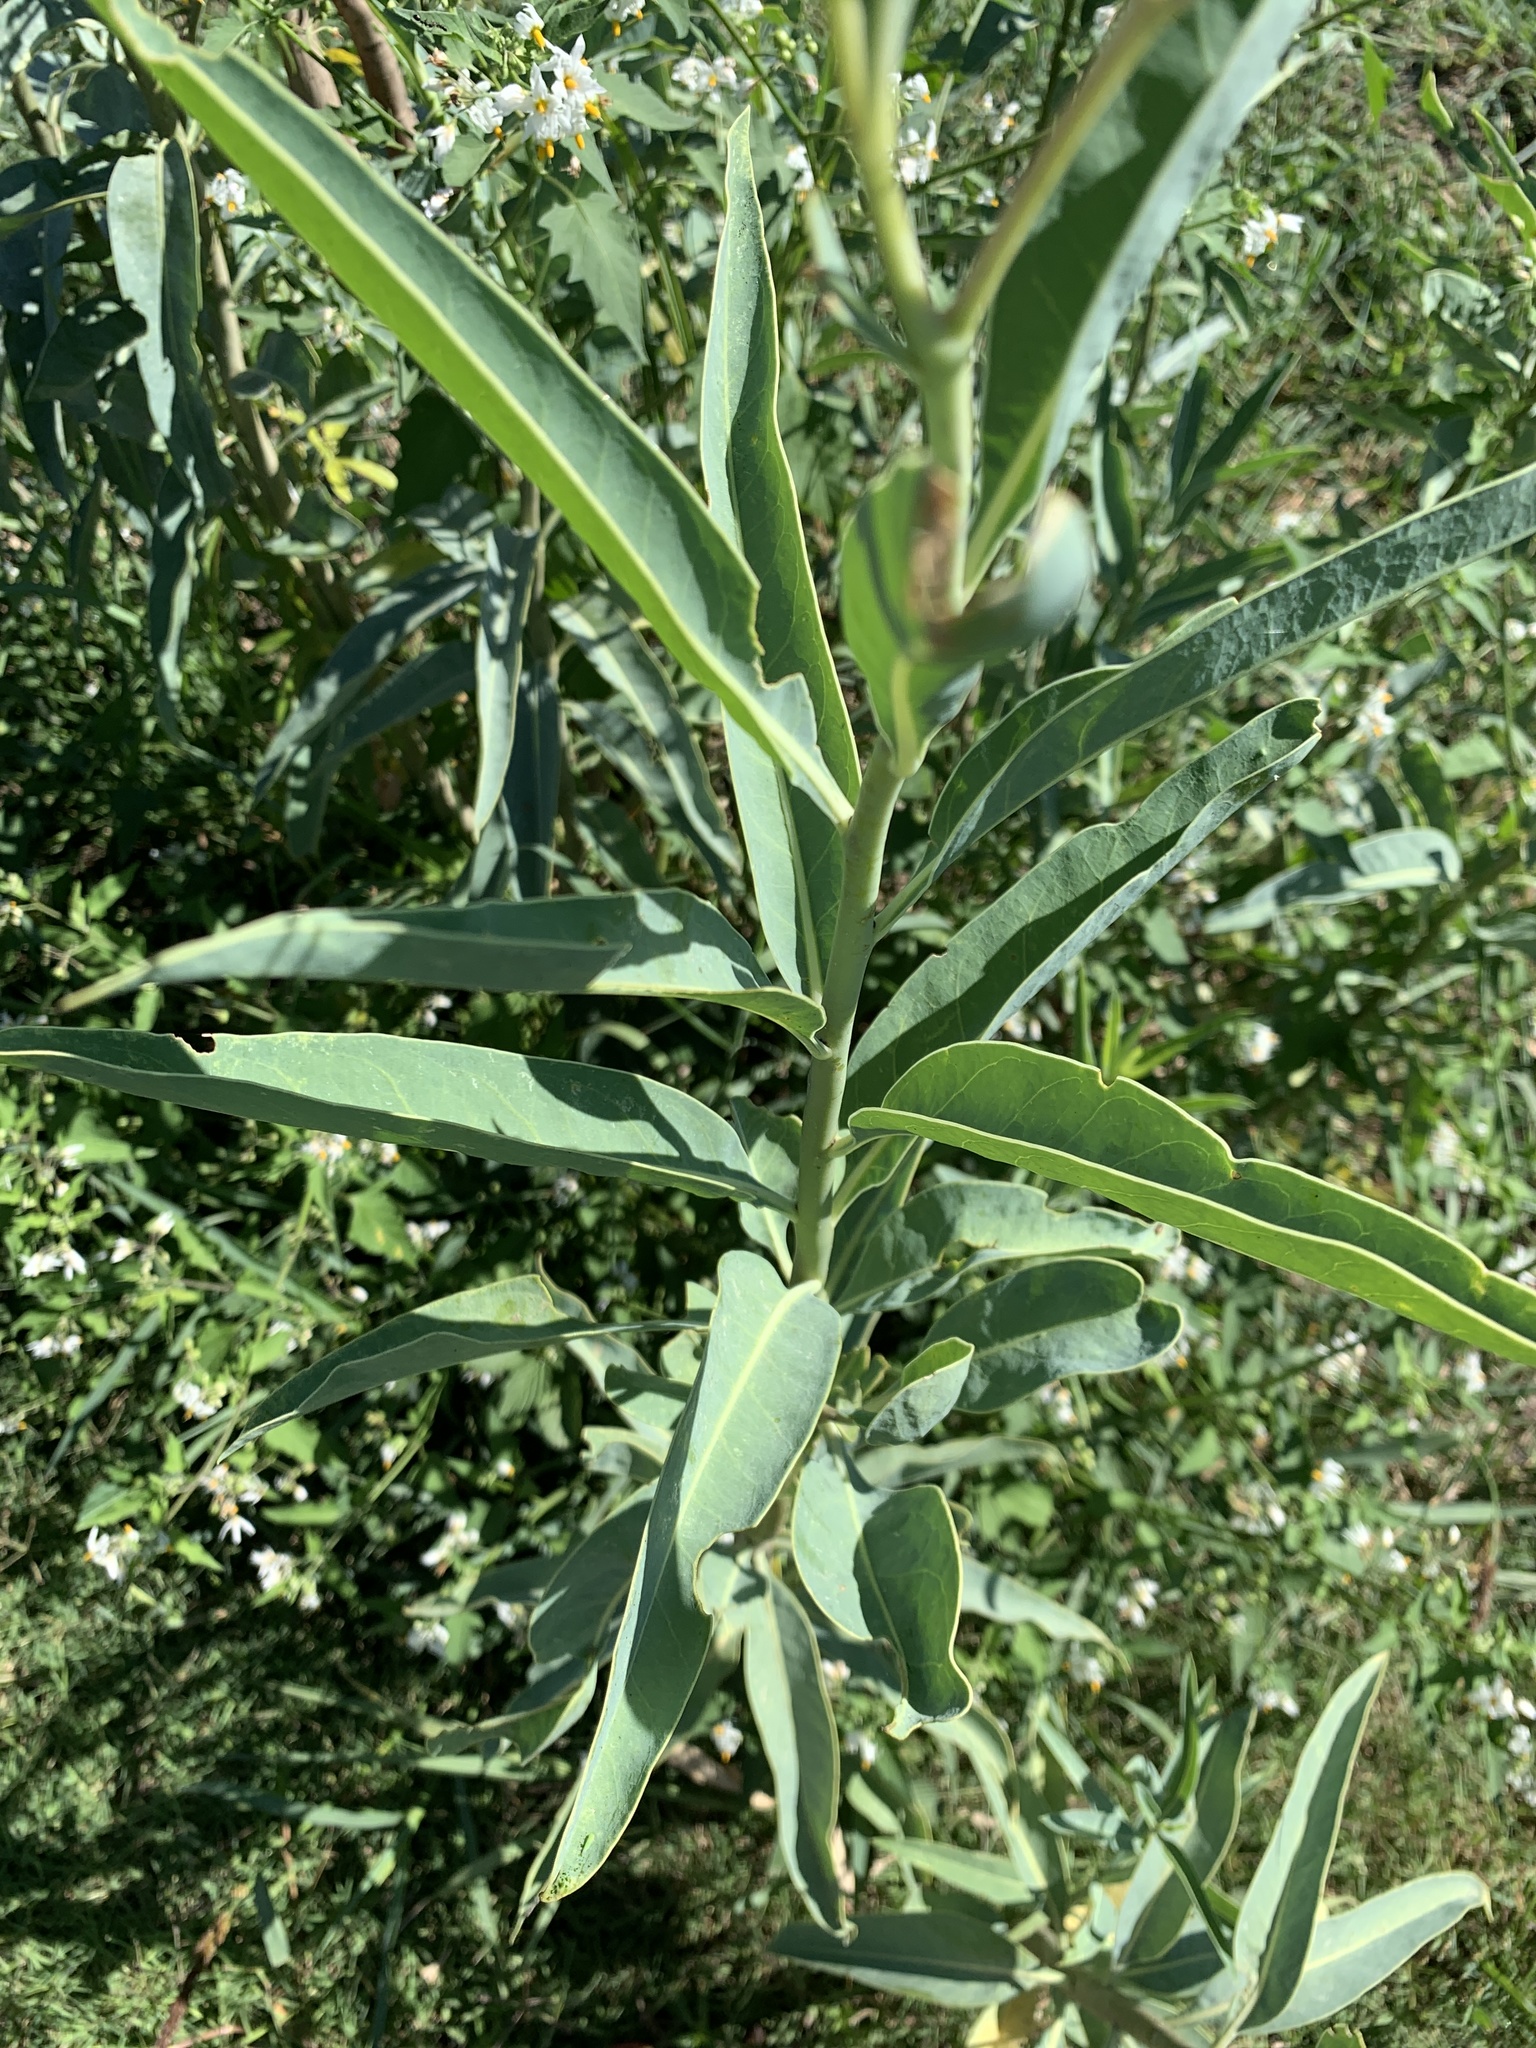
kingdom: Plantae
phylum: Tracheophyta
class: Magnoliopsida
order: Solanales
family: Solanaceae
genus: Solanum
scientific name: Solanum glaucophyllum
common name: Waxyleaf nightshade
